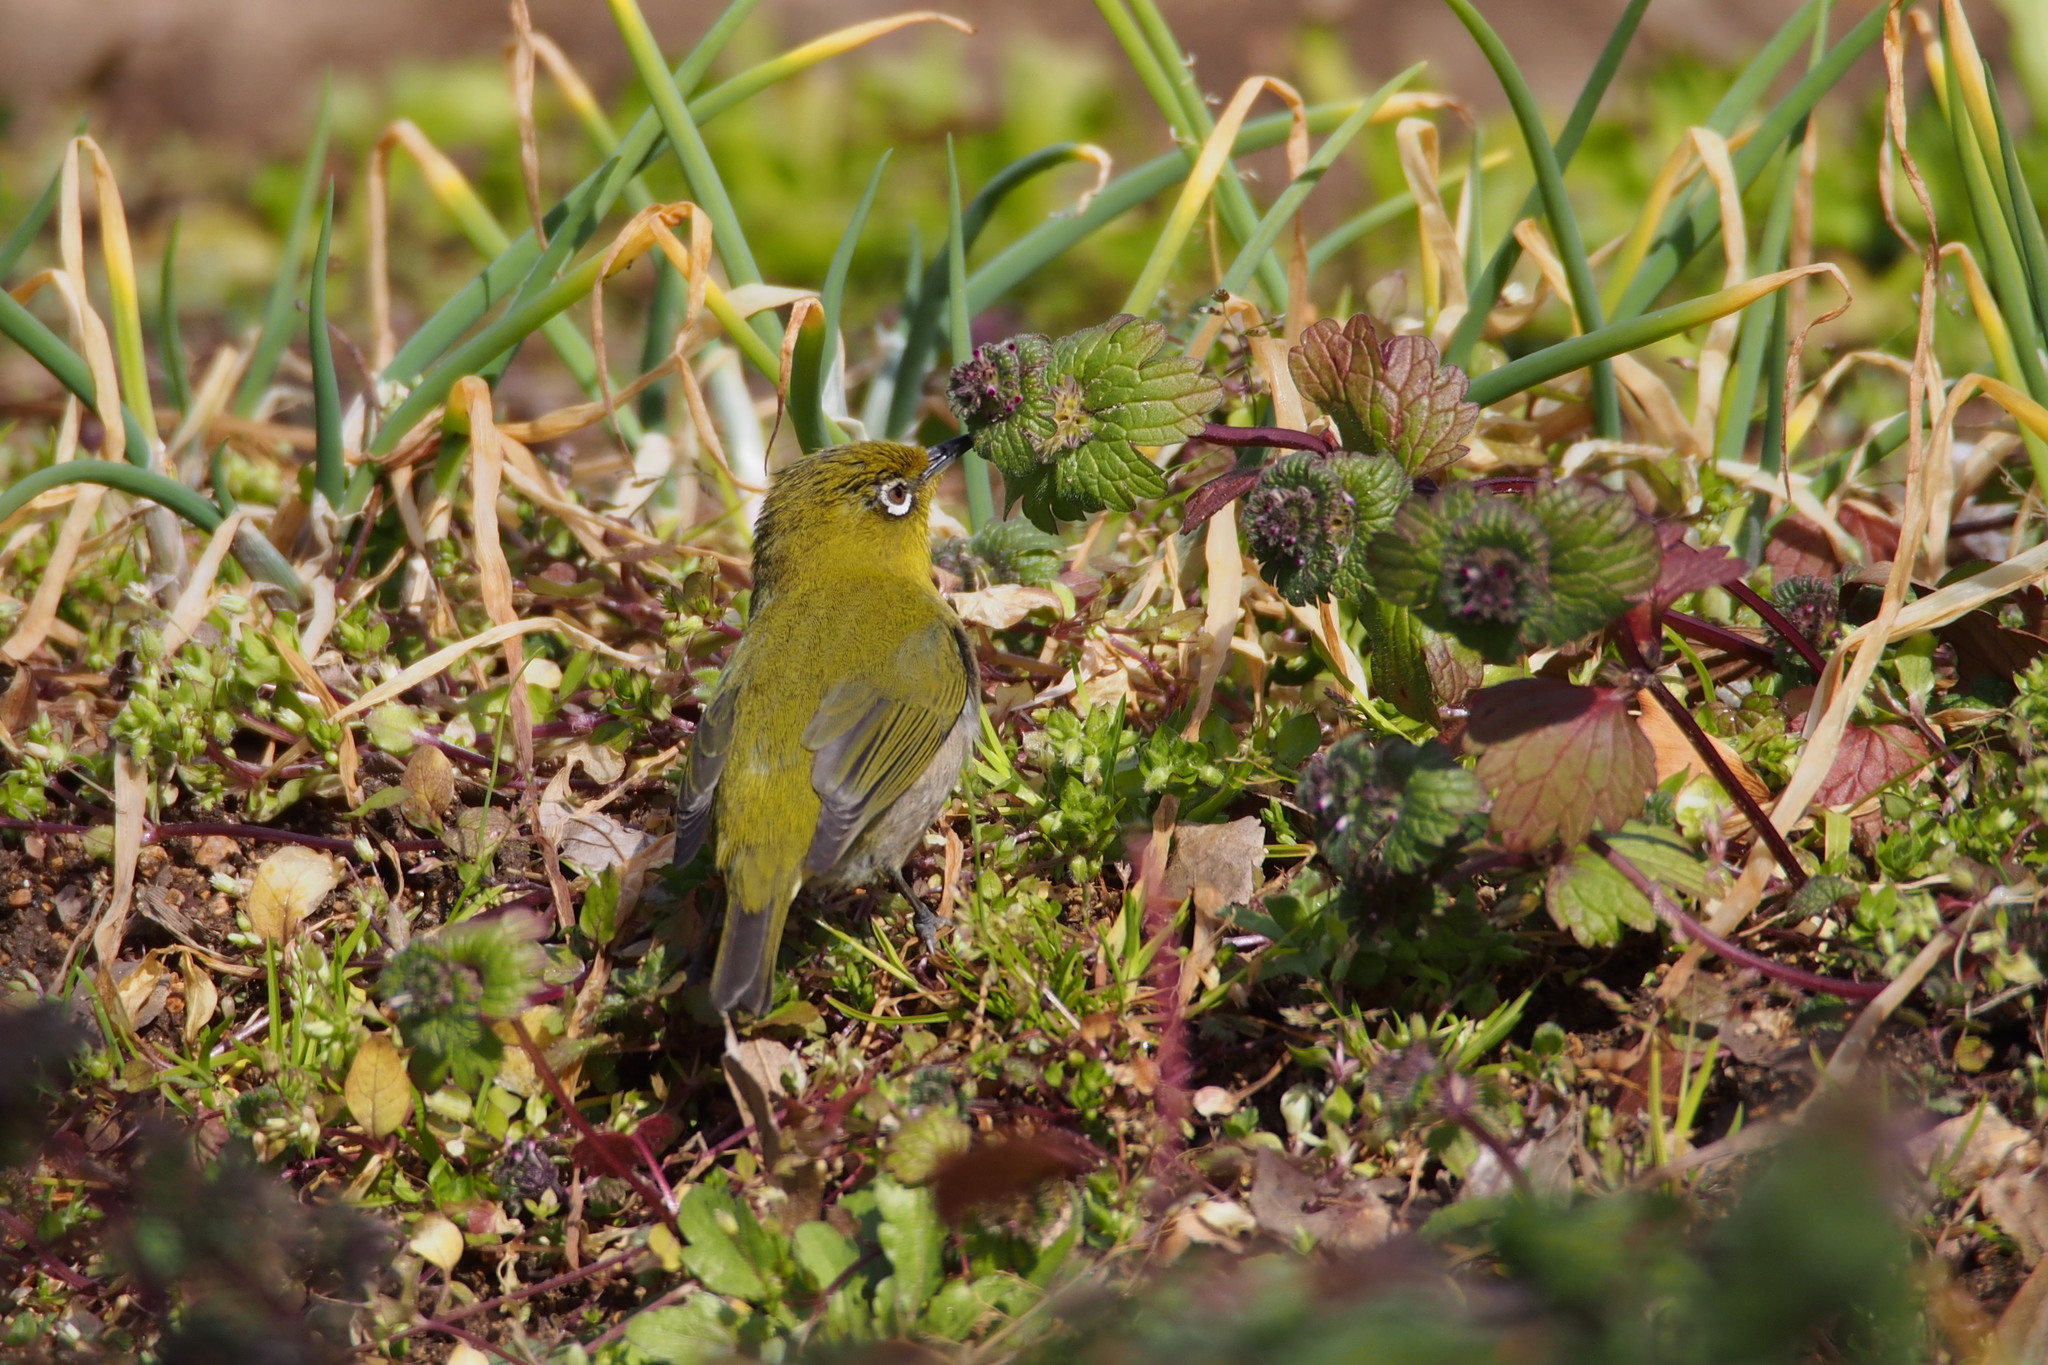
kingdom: Animalia
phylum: Chordata
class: Aves
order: Passeriformes
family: Zosteropidae
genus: Zosterops
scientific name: Zosterops japonicus
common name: Japanese white-eye
